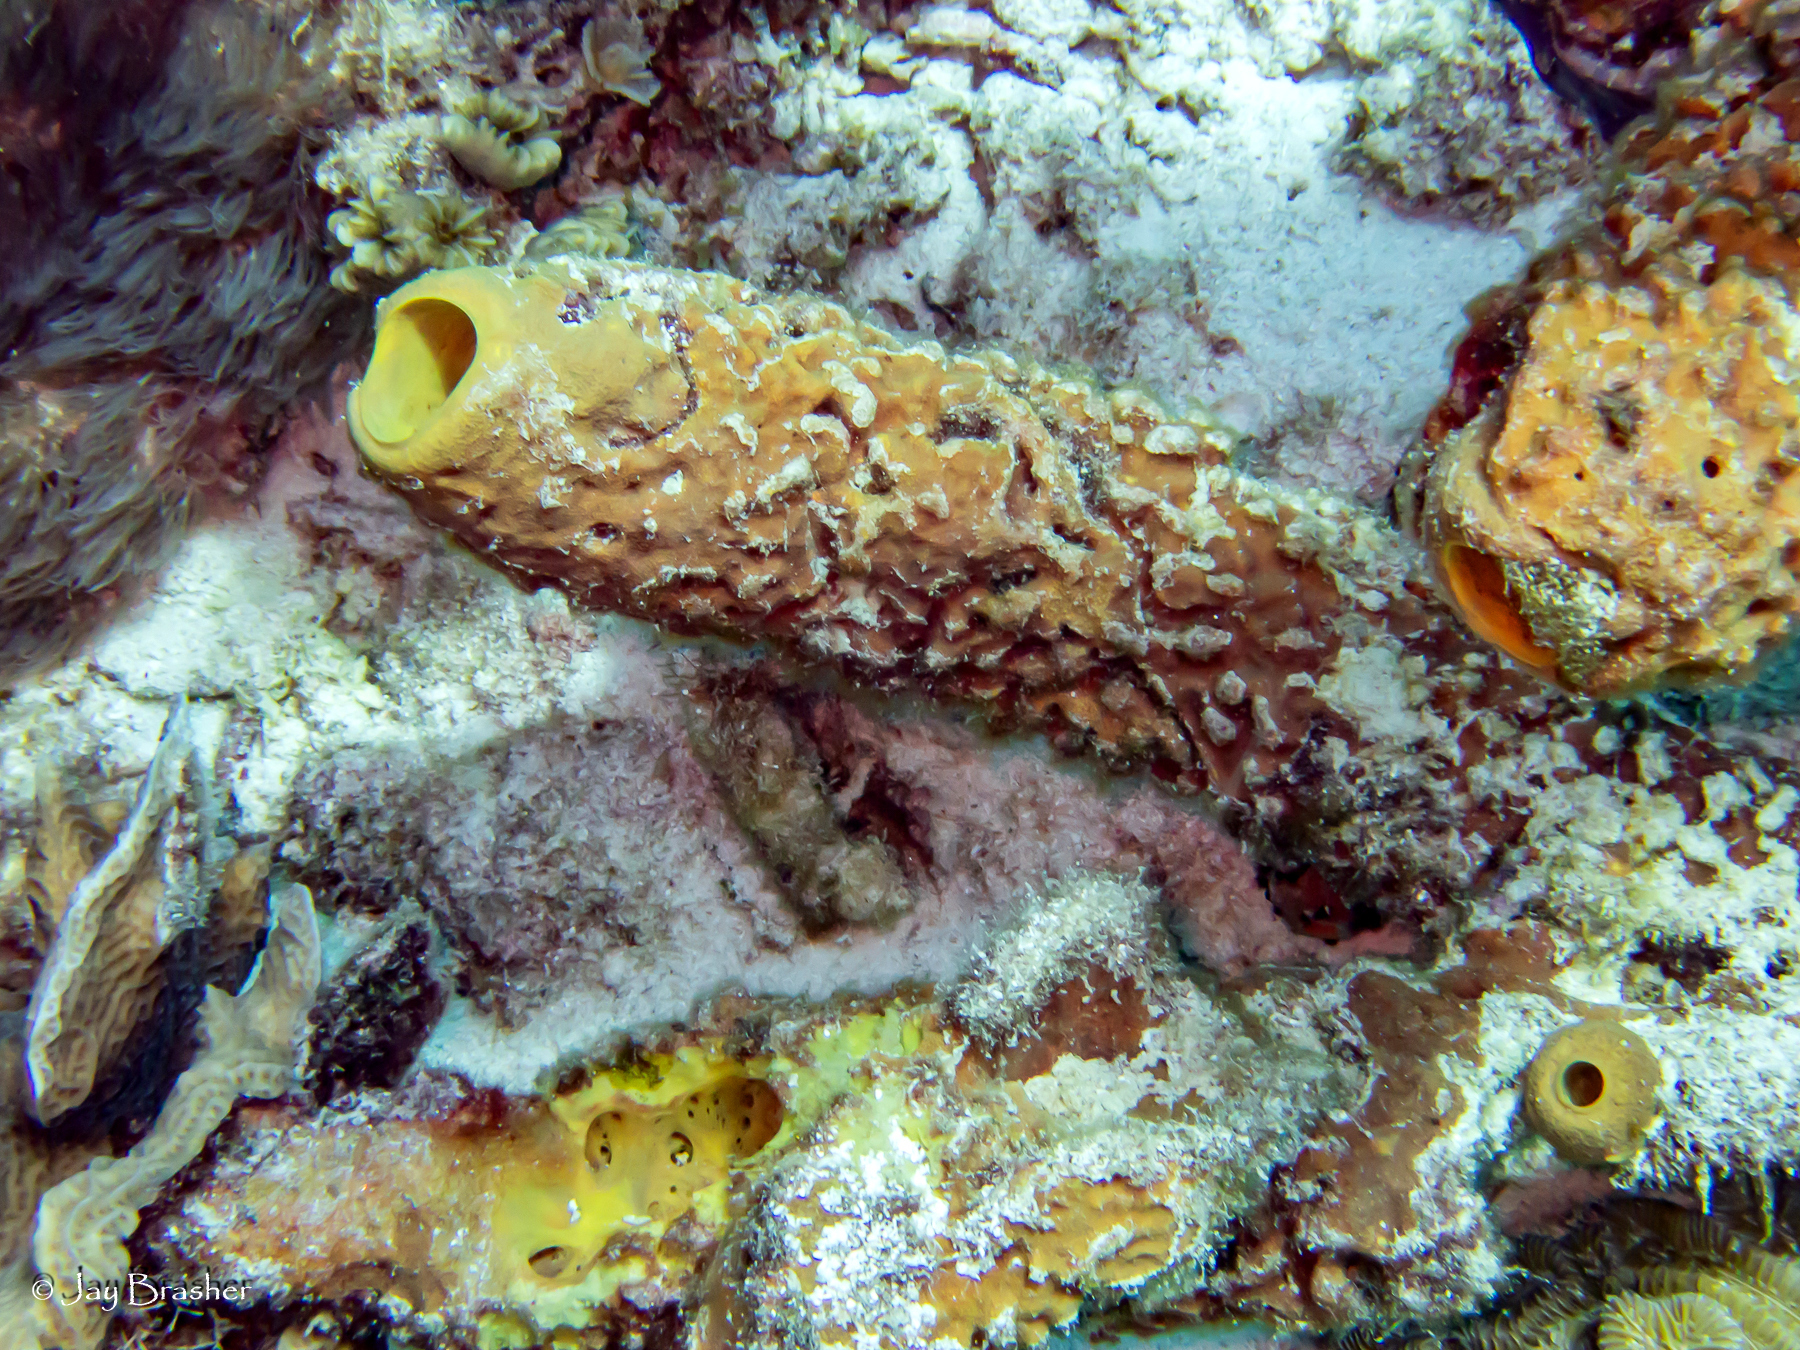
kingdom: Animalia
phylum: Porifera
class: Demospongiae
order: Verongiida
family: Aplysinidae
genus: Aplysina
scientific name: Aplysina archeri
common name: Stove-pipe sponge
